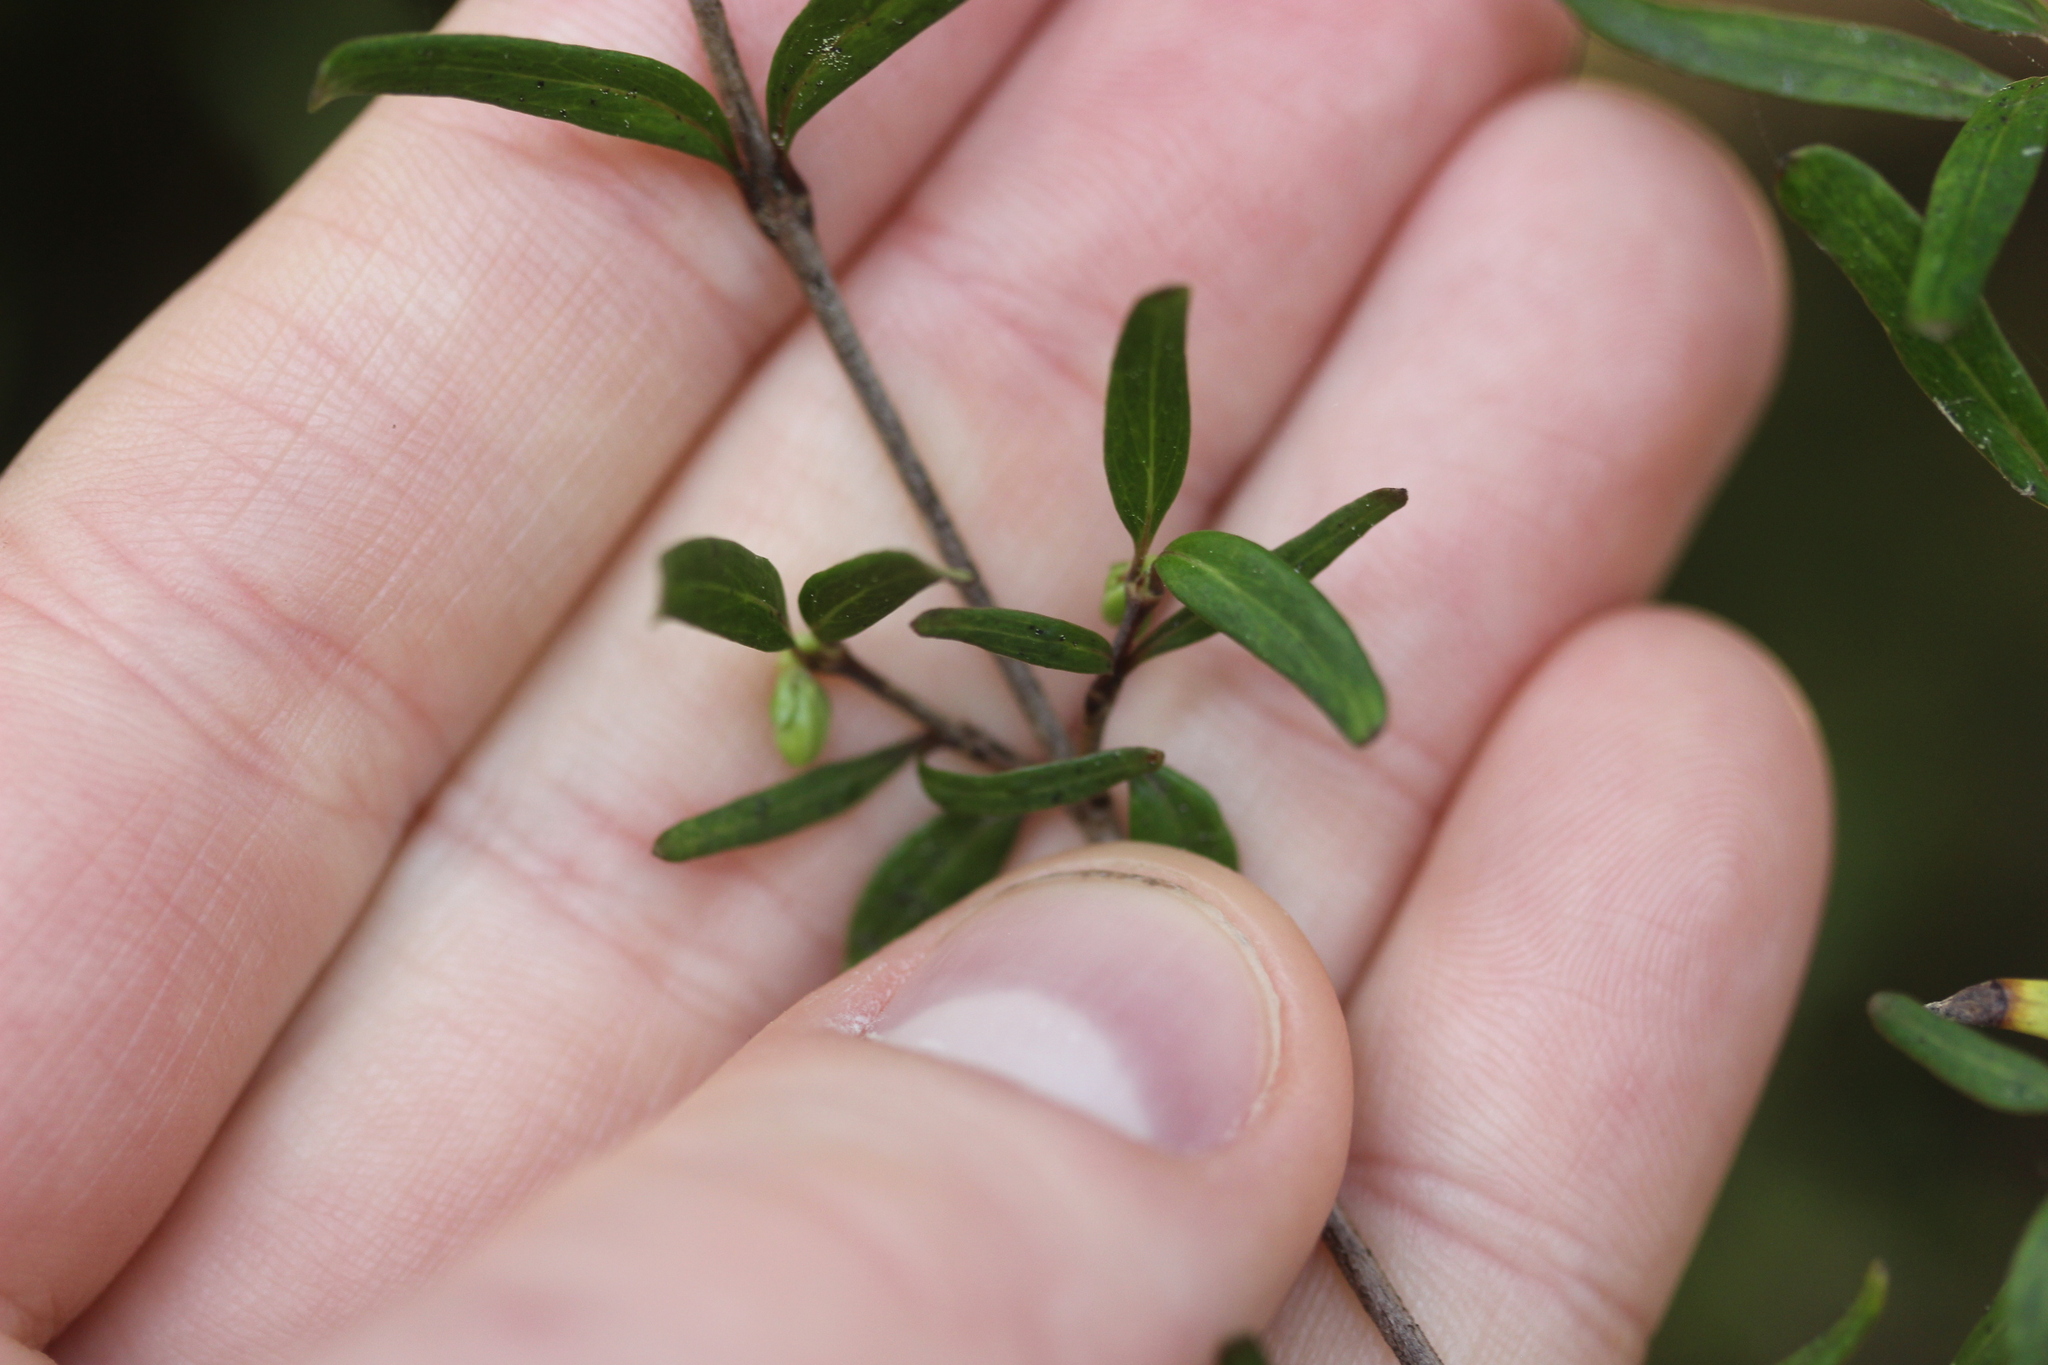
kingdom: Plantae
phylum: Tracheophyta
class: Magnoliopsida
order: Gentianales
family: Rubiaceae
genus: Coprosma
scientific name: Coprosma colensoi
